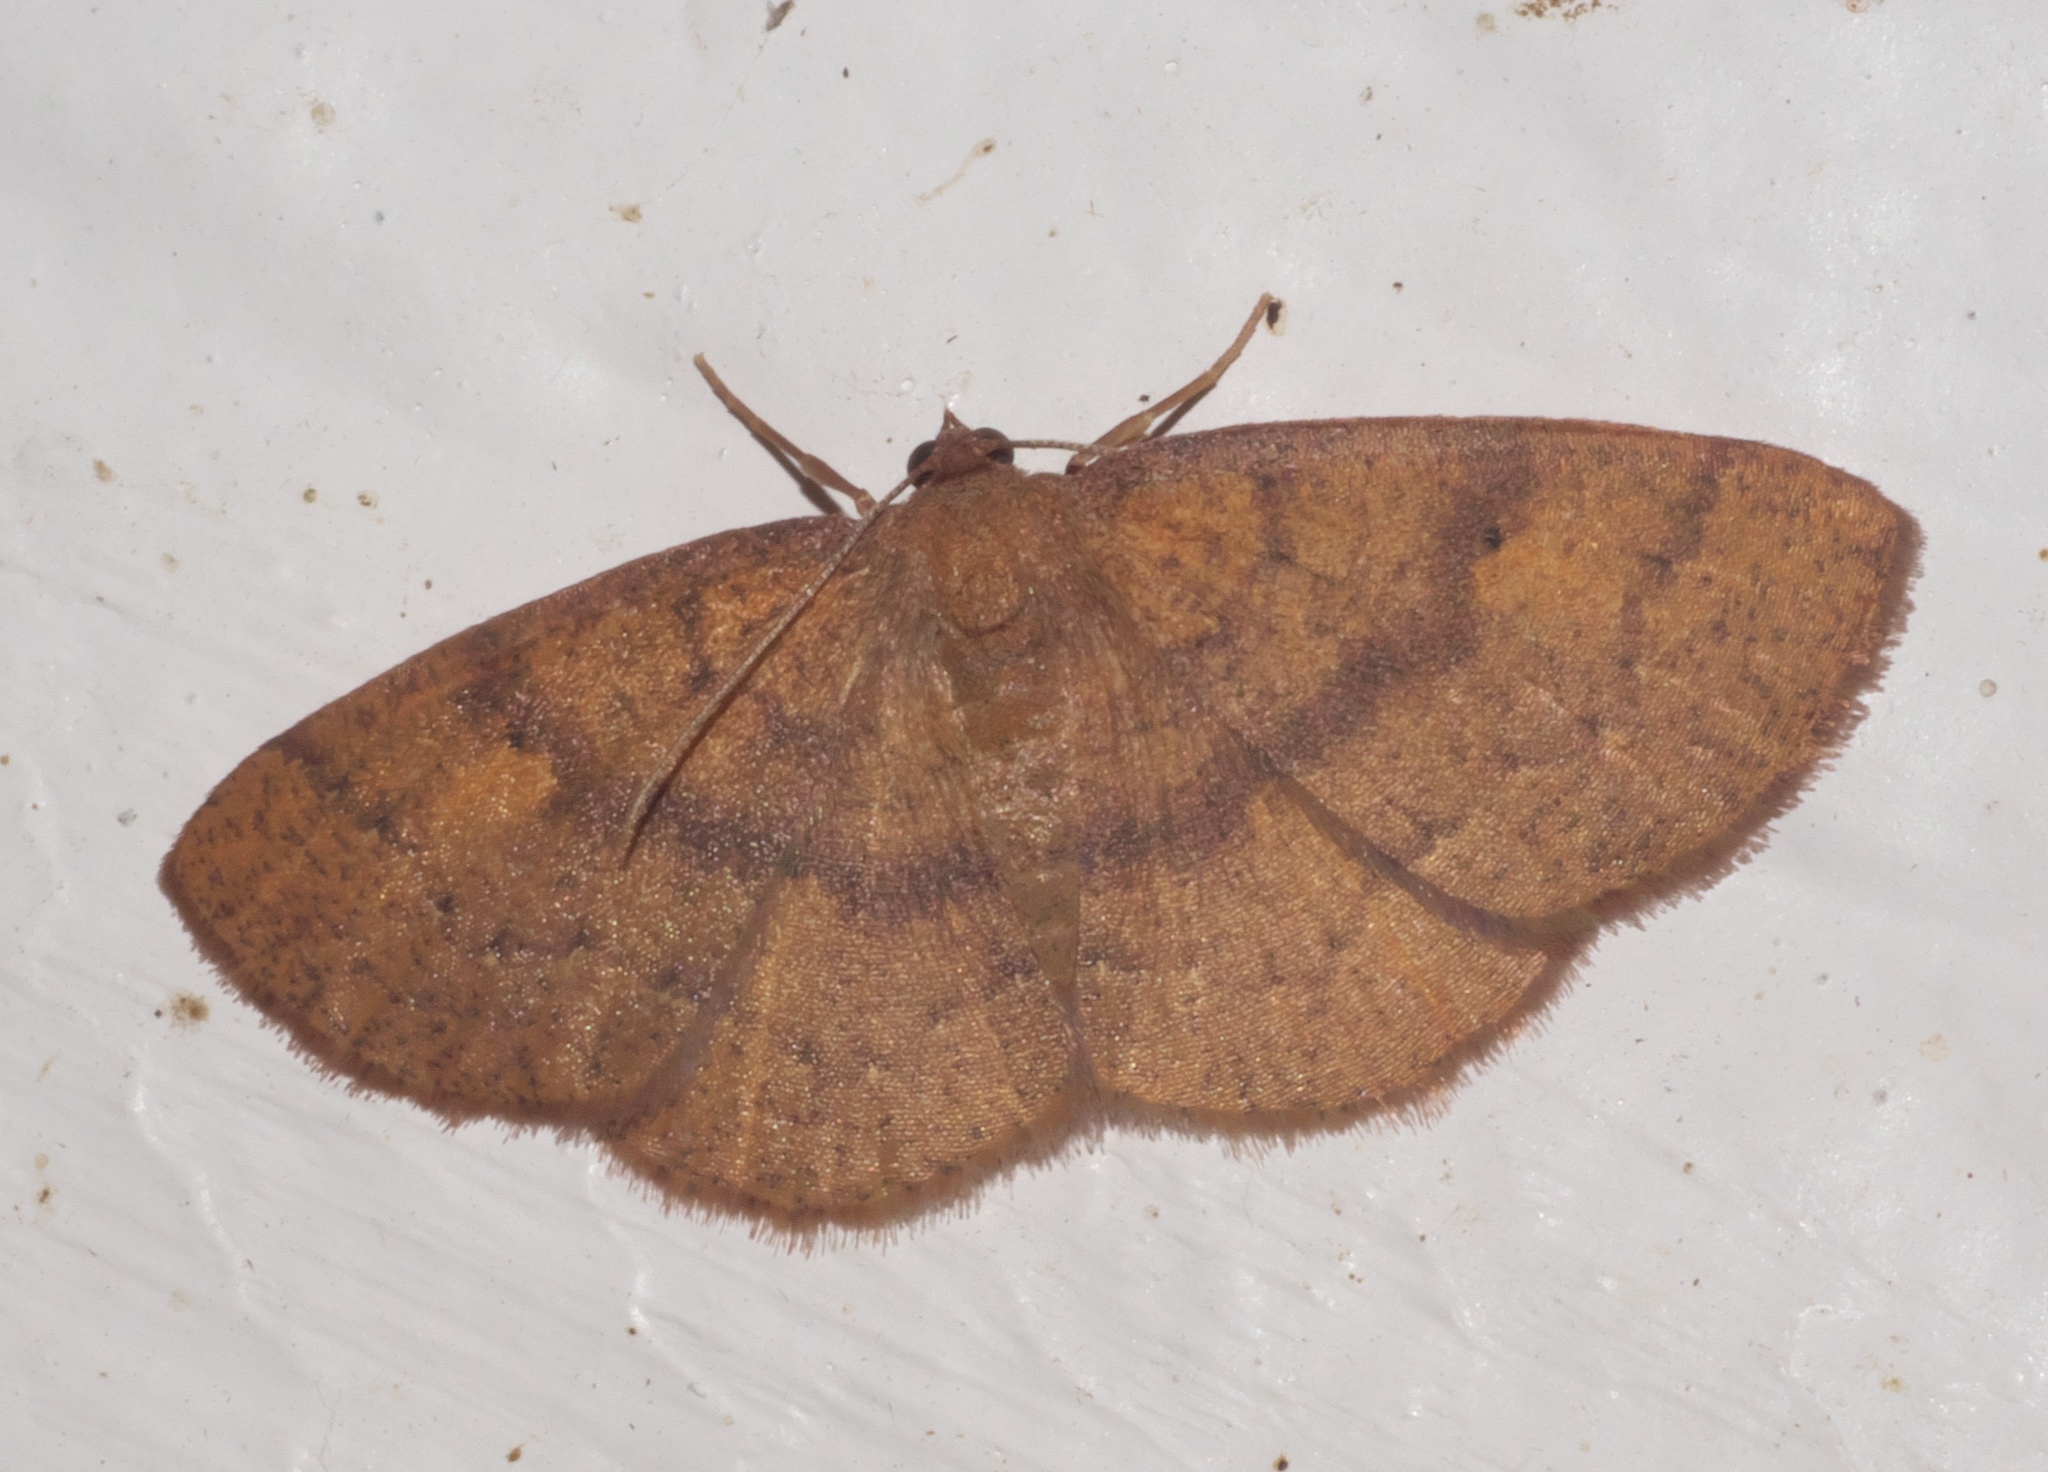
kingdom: Animalia
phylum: Arthropoda
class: Insecta
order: Lepidoptera
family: Geometridae
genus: Ilexia
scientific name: Ilexia intractata
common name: Black-dotted ruddy moth
